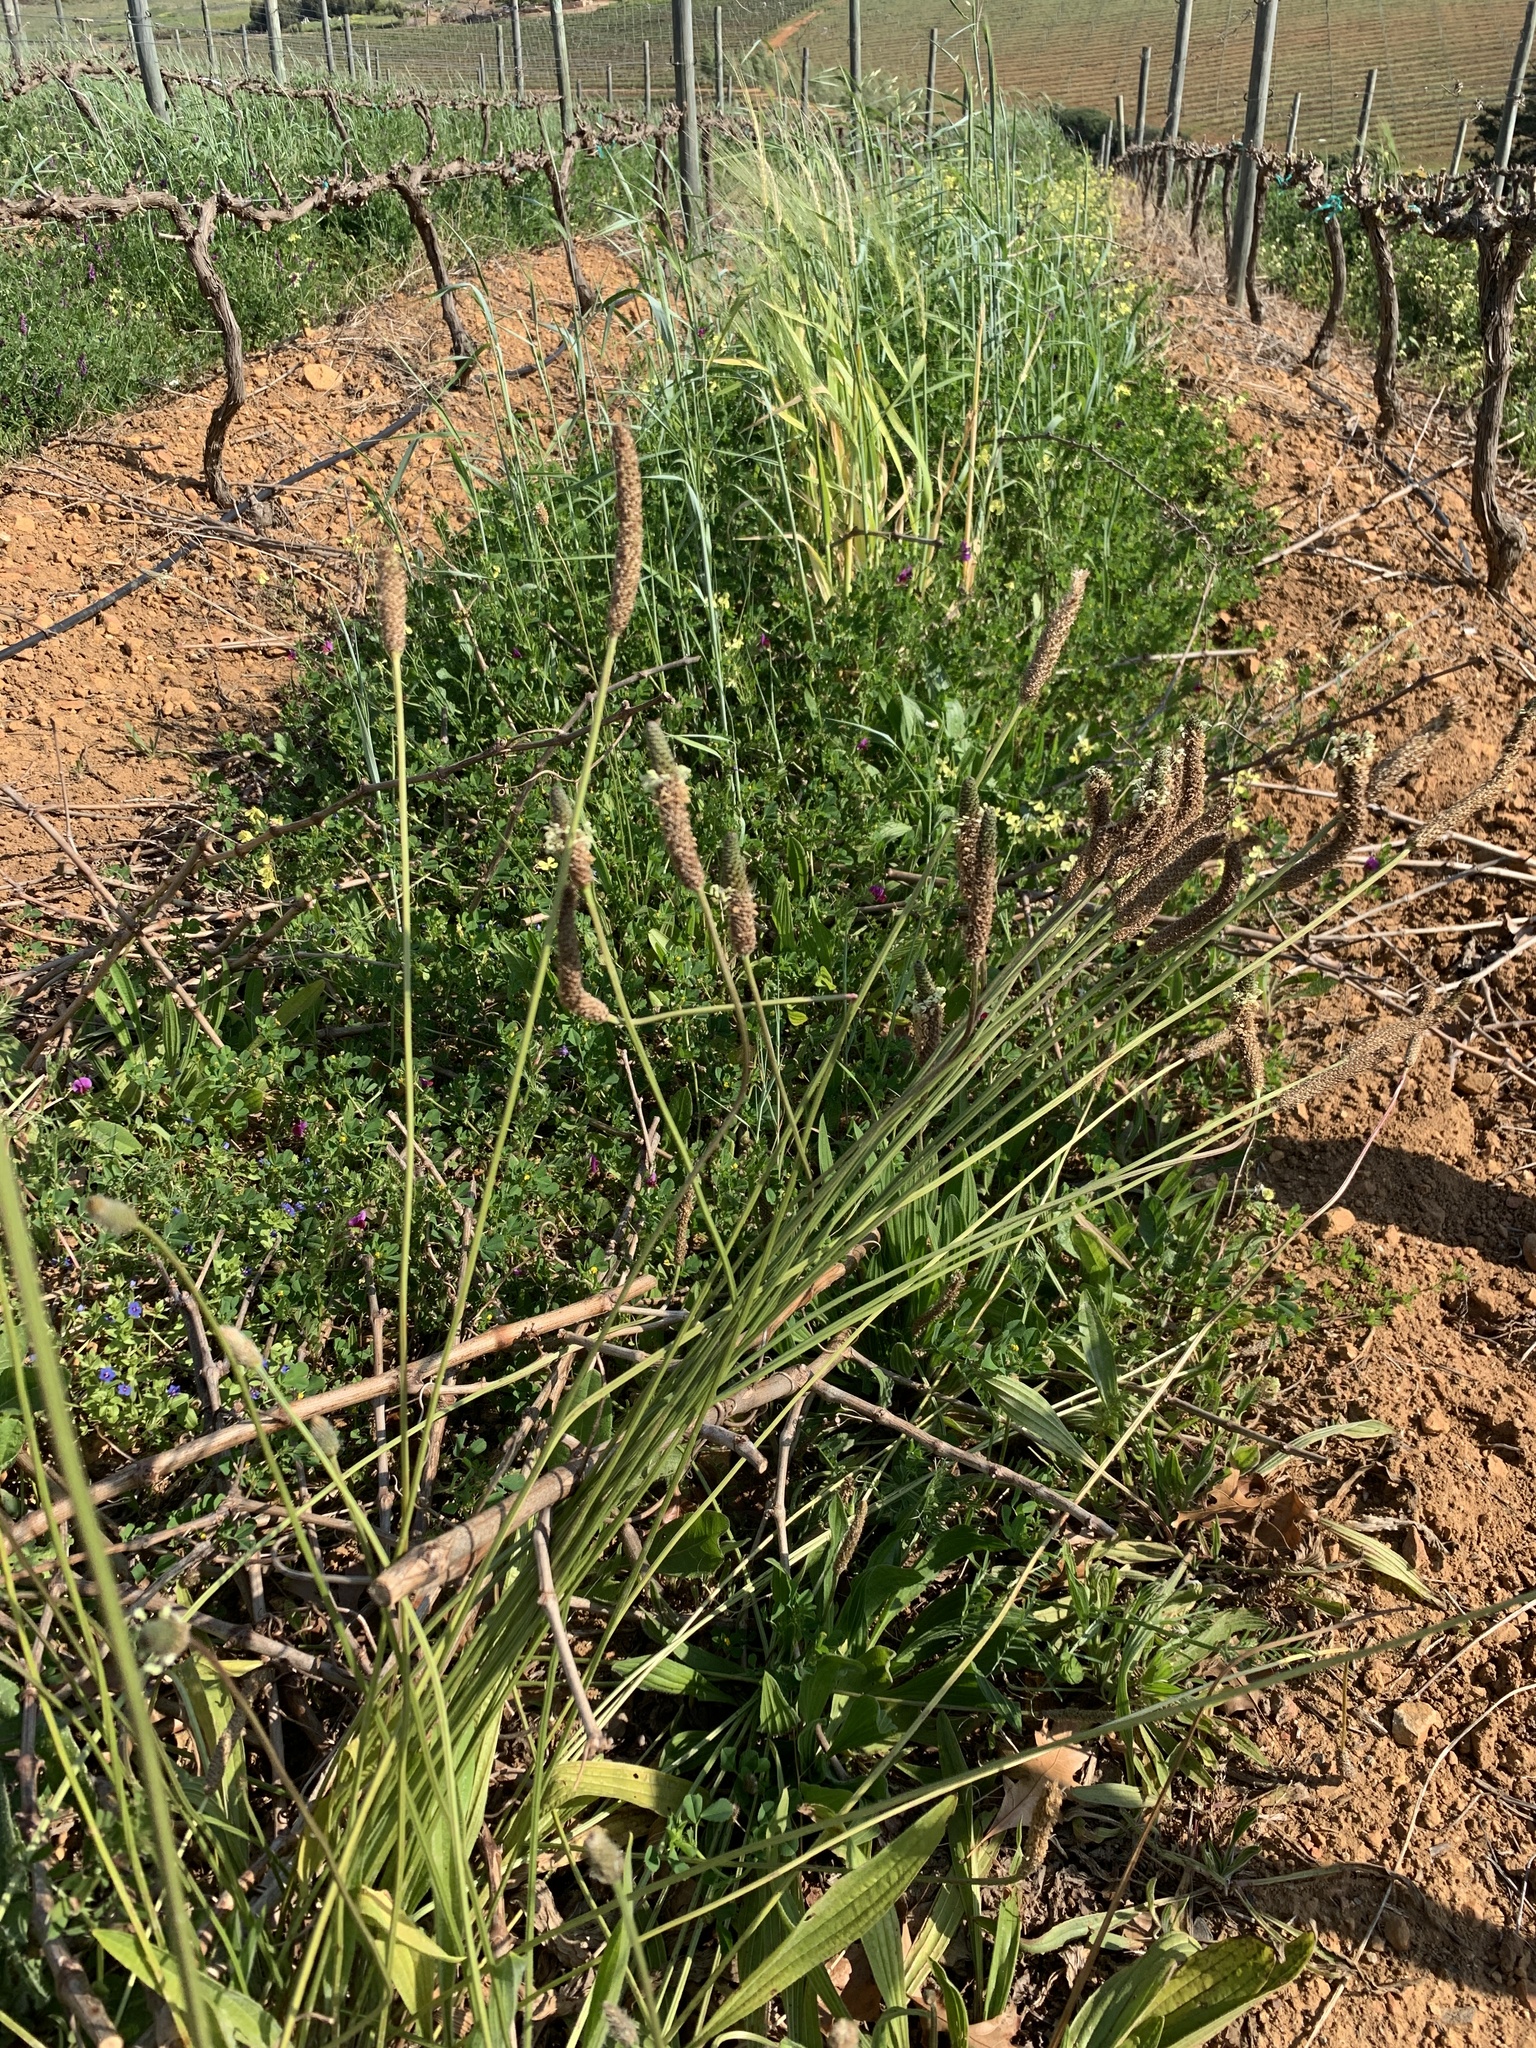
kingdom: Plantae
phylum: Tracheophyta
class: Magnoliopsida
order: Lamiales
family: Plantaginaceae
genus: Plantago
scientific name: Plantago lanceolata
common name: Ribwort plantain
